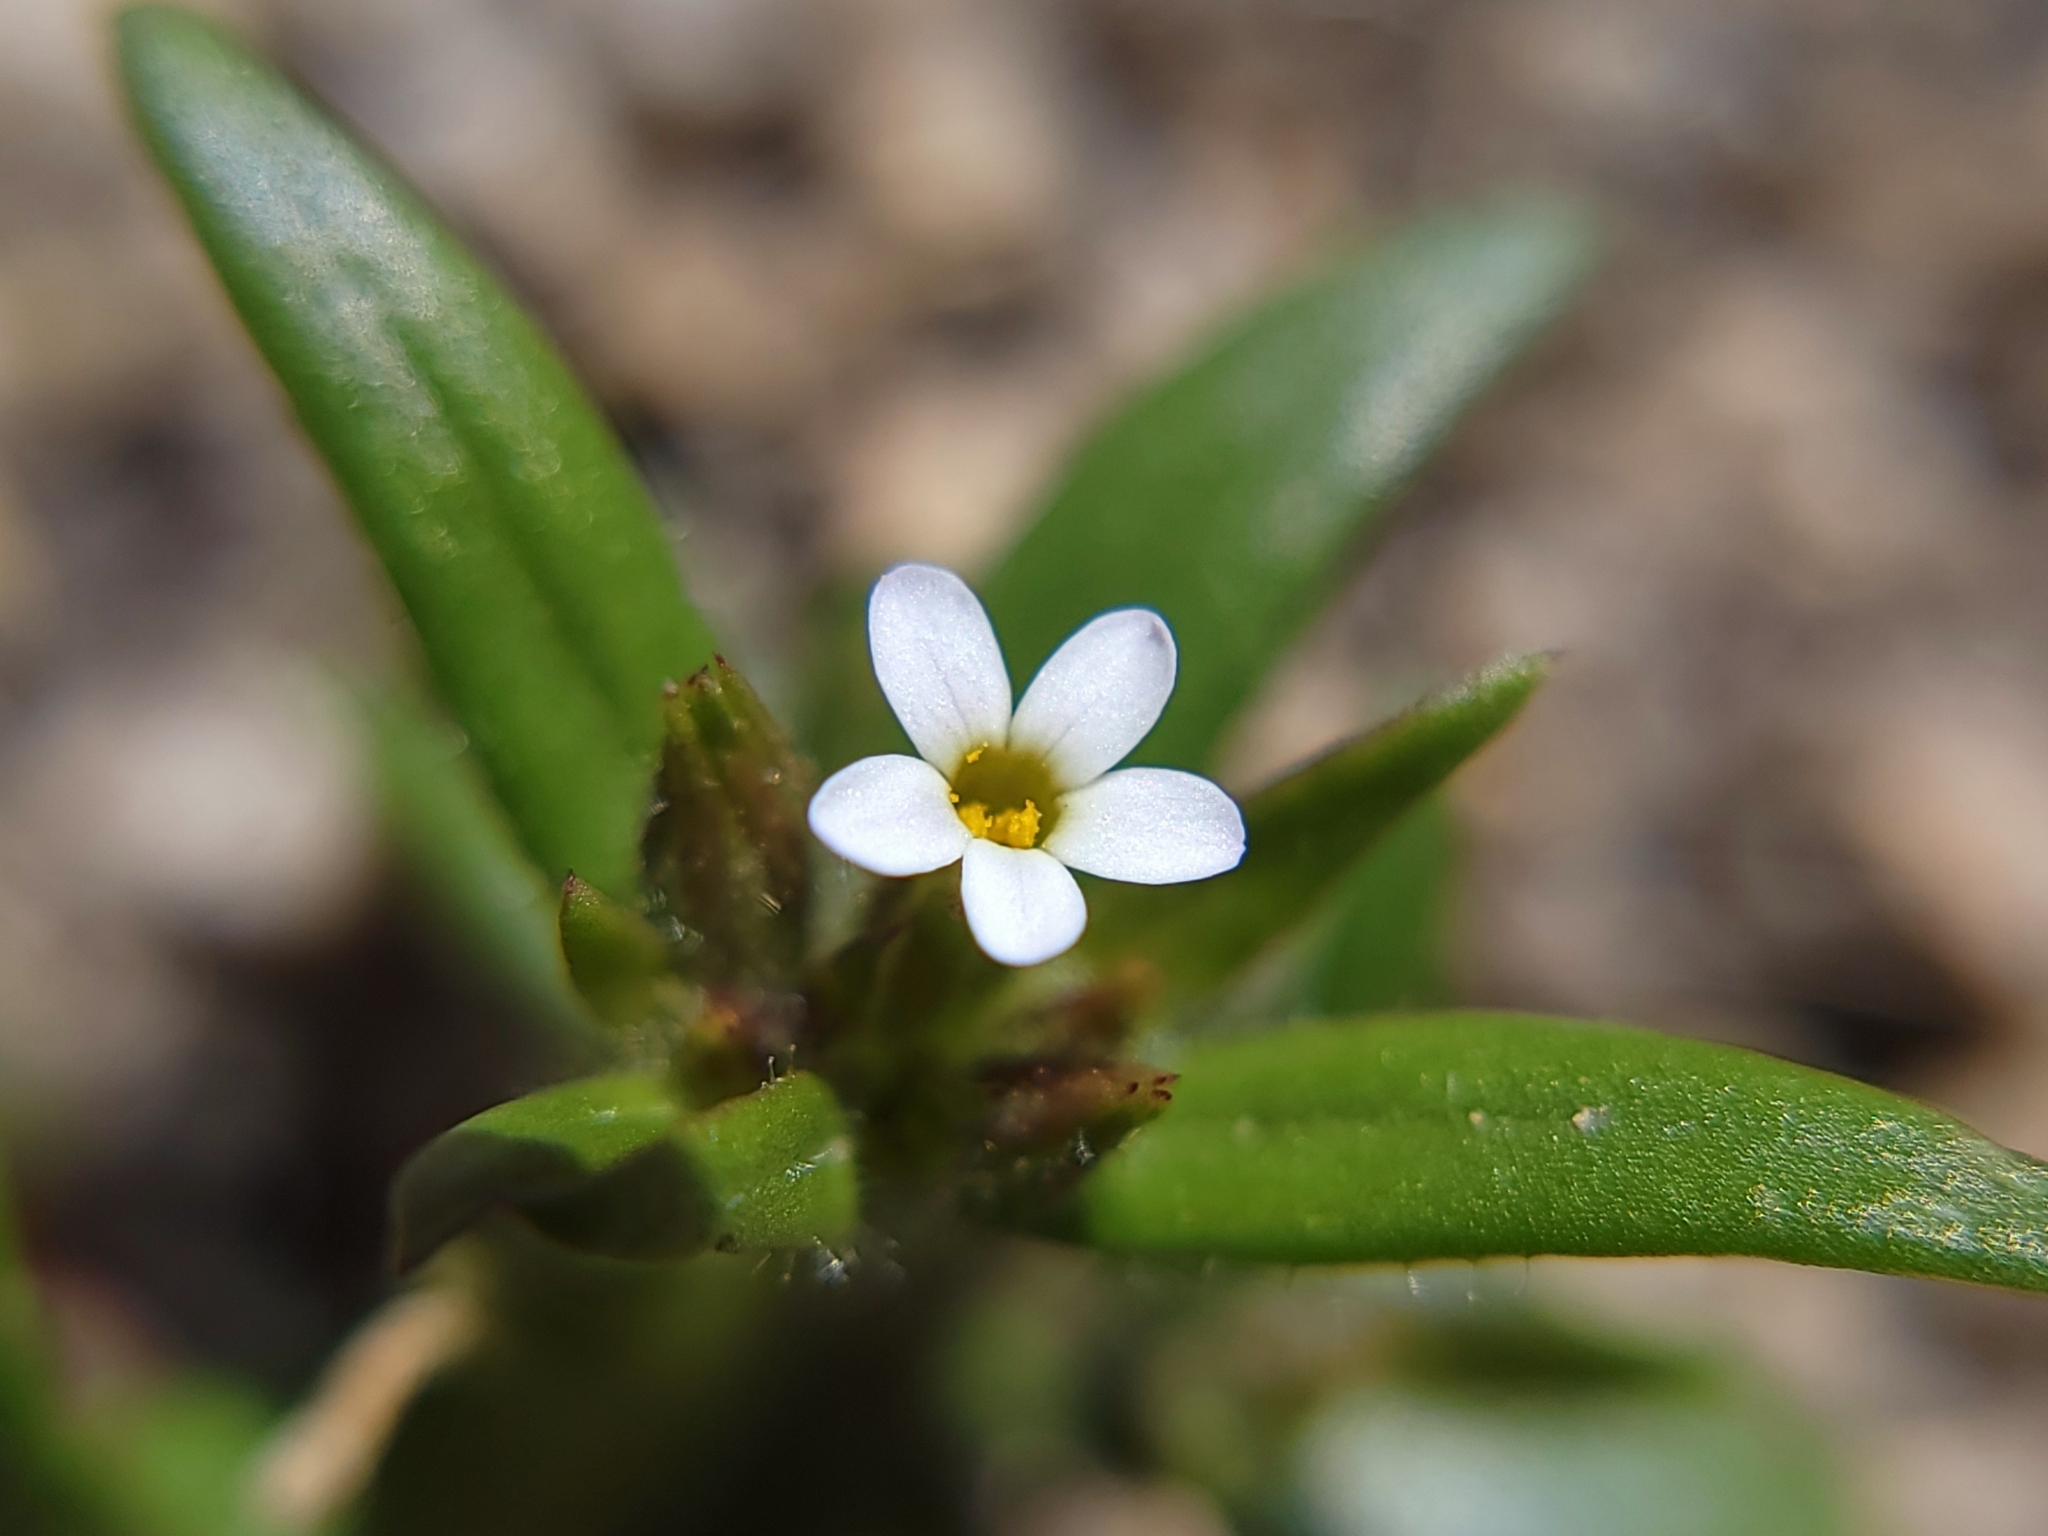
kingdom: Plantae
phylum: Tracheophyta
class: Magnoliopsida
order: Ericales
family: Polemoniaceae
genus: Phlox
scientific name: Phlox gracilis
